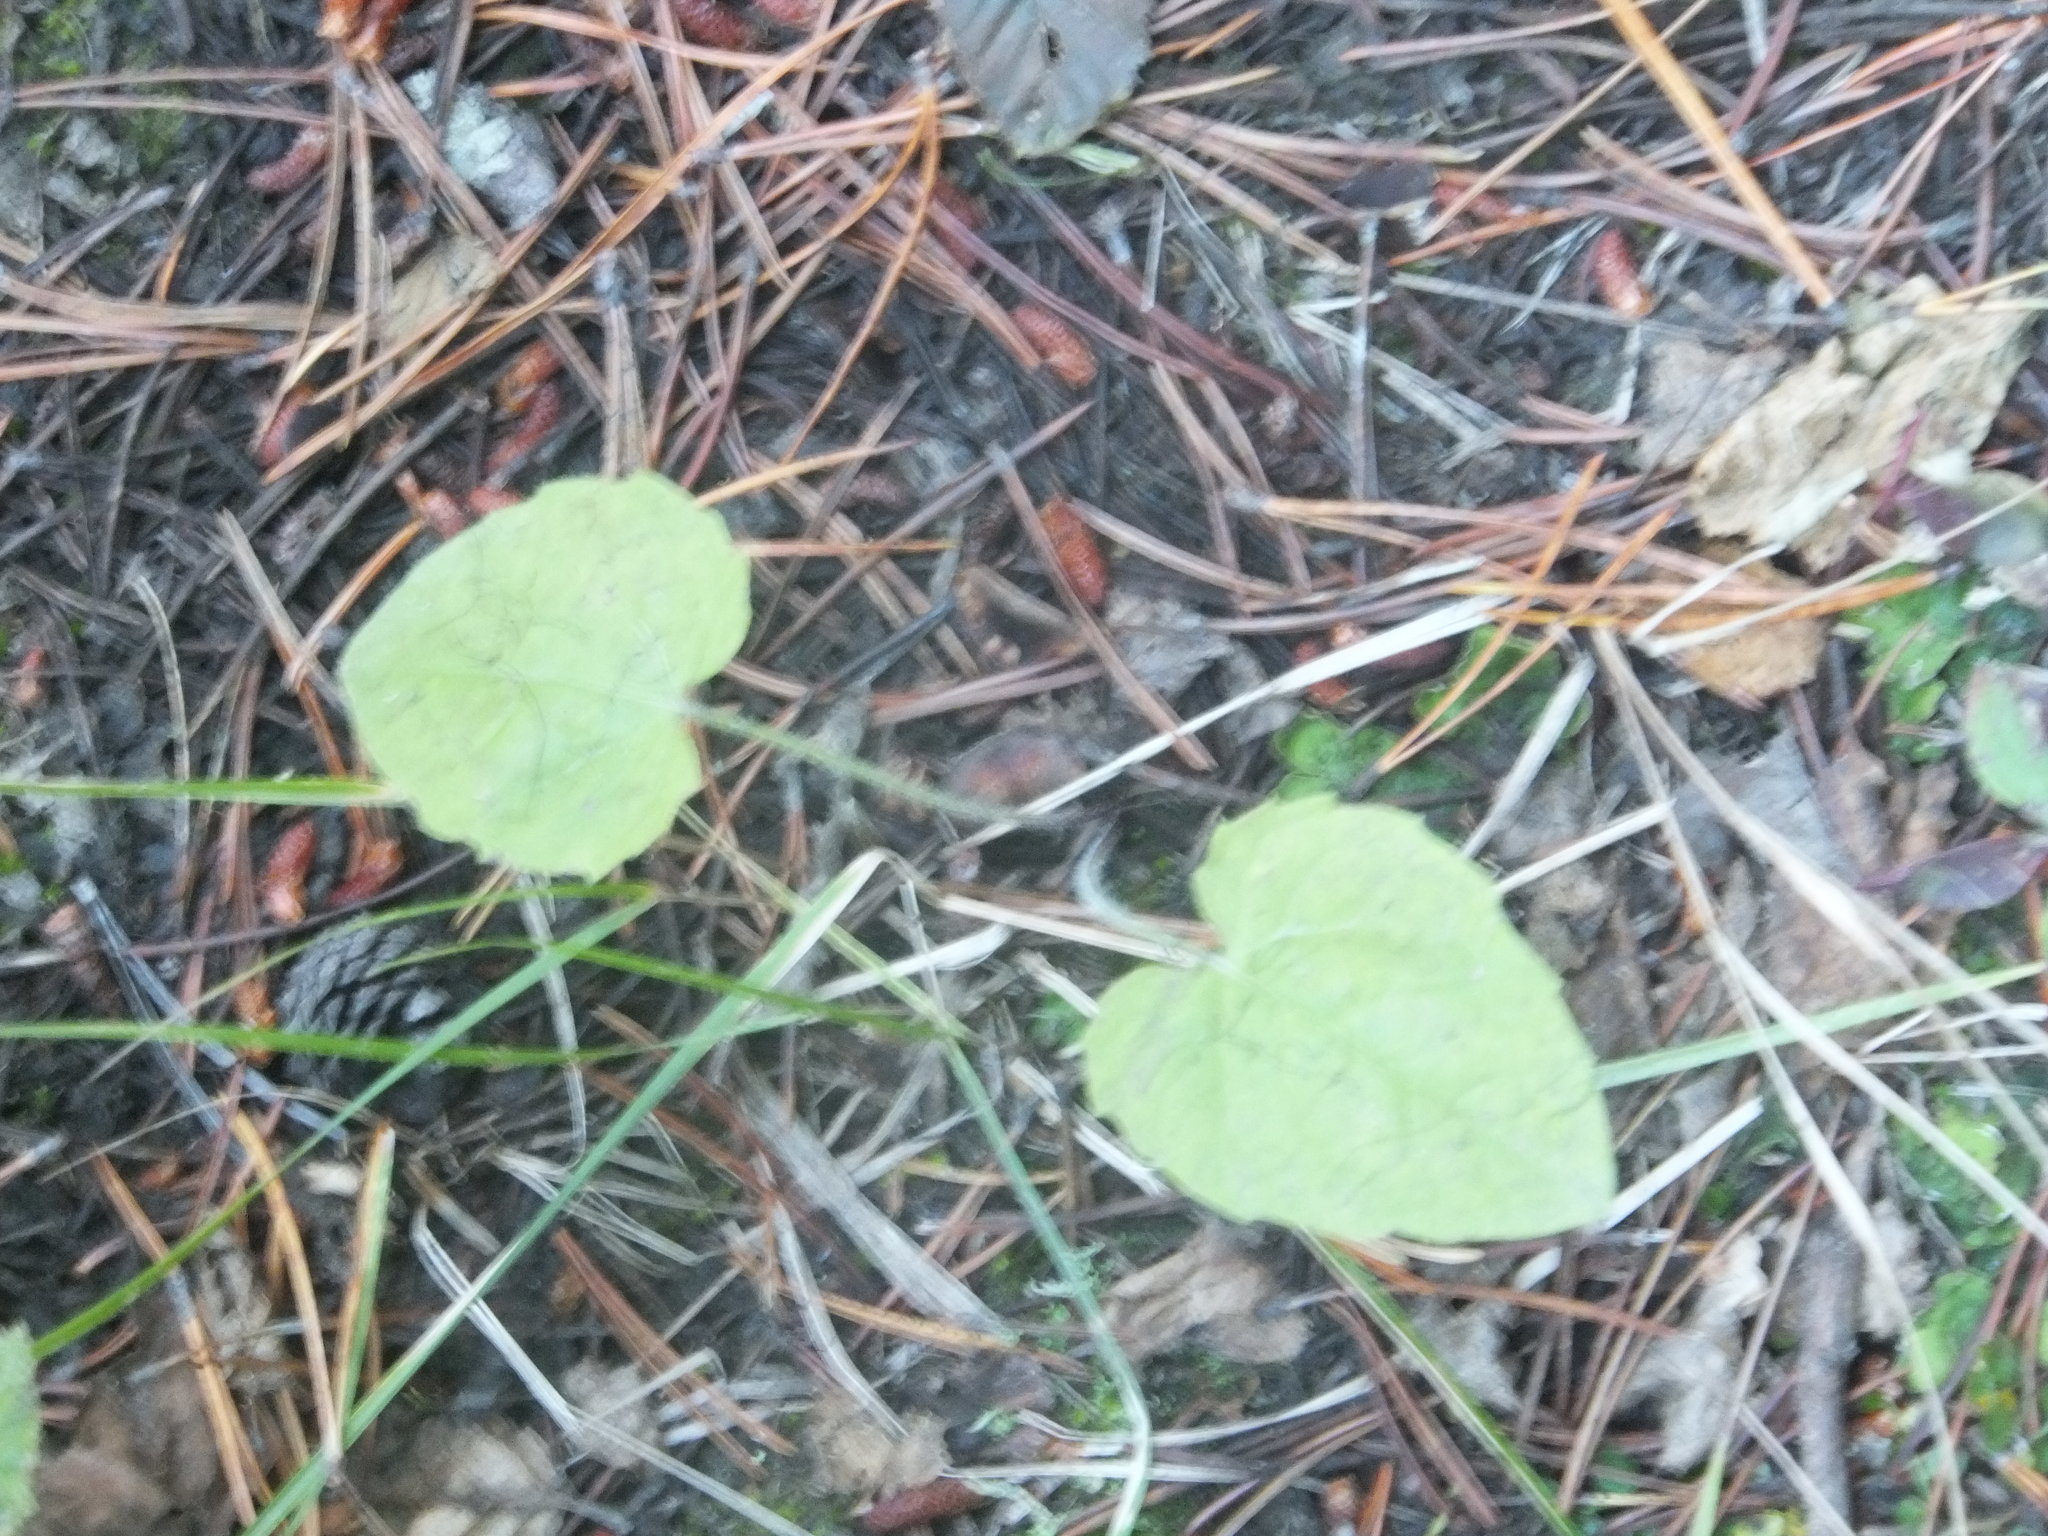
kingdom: Plantae
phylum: Tracheophyta
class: Magnoliopsida
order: Asterales
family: Asteraceae
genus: Arnica
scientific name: Arnica cordifolia
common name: Heart-leaf arnica
